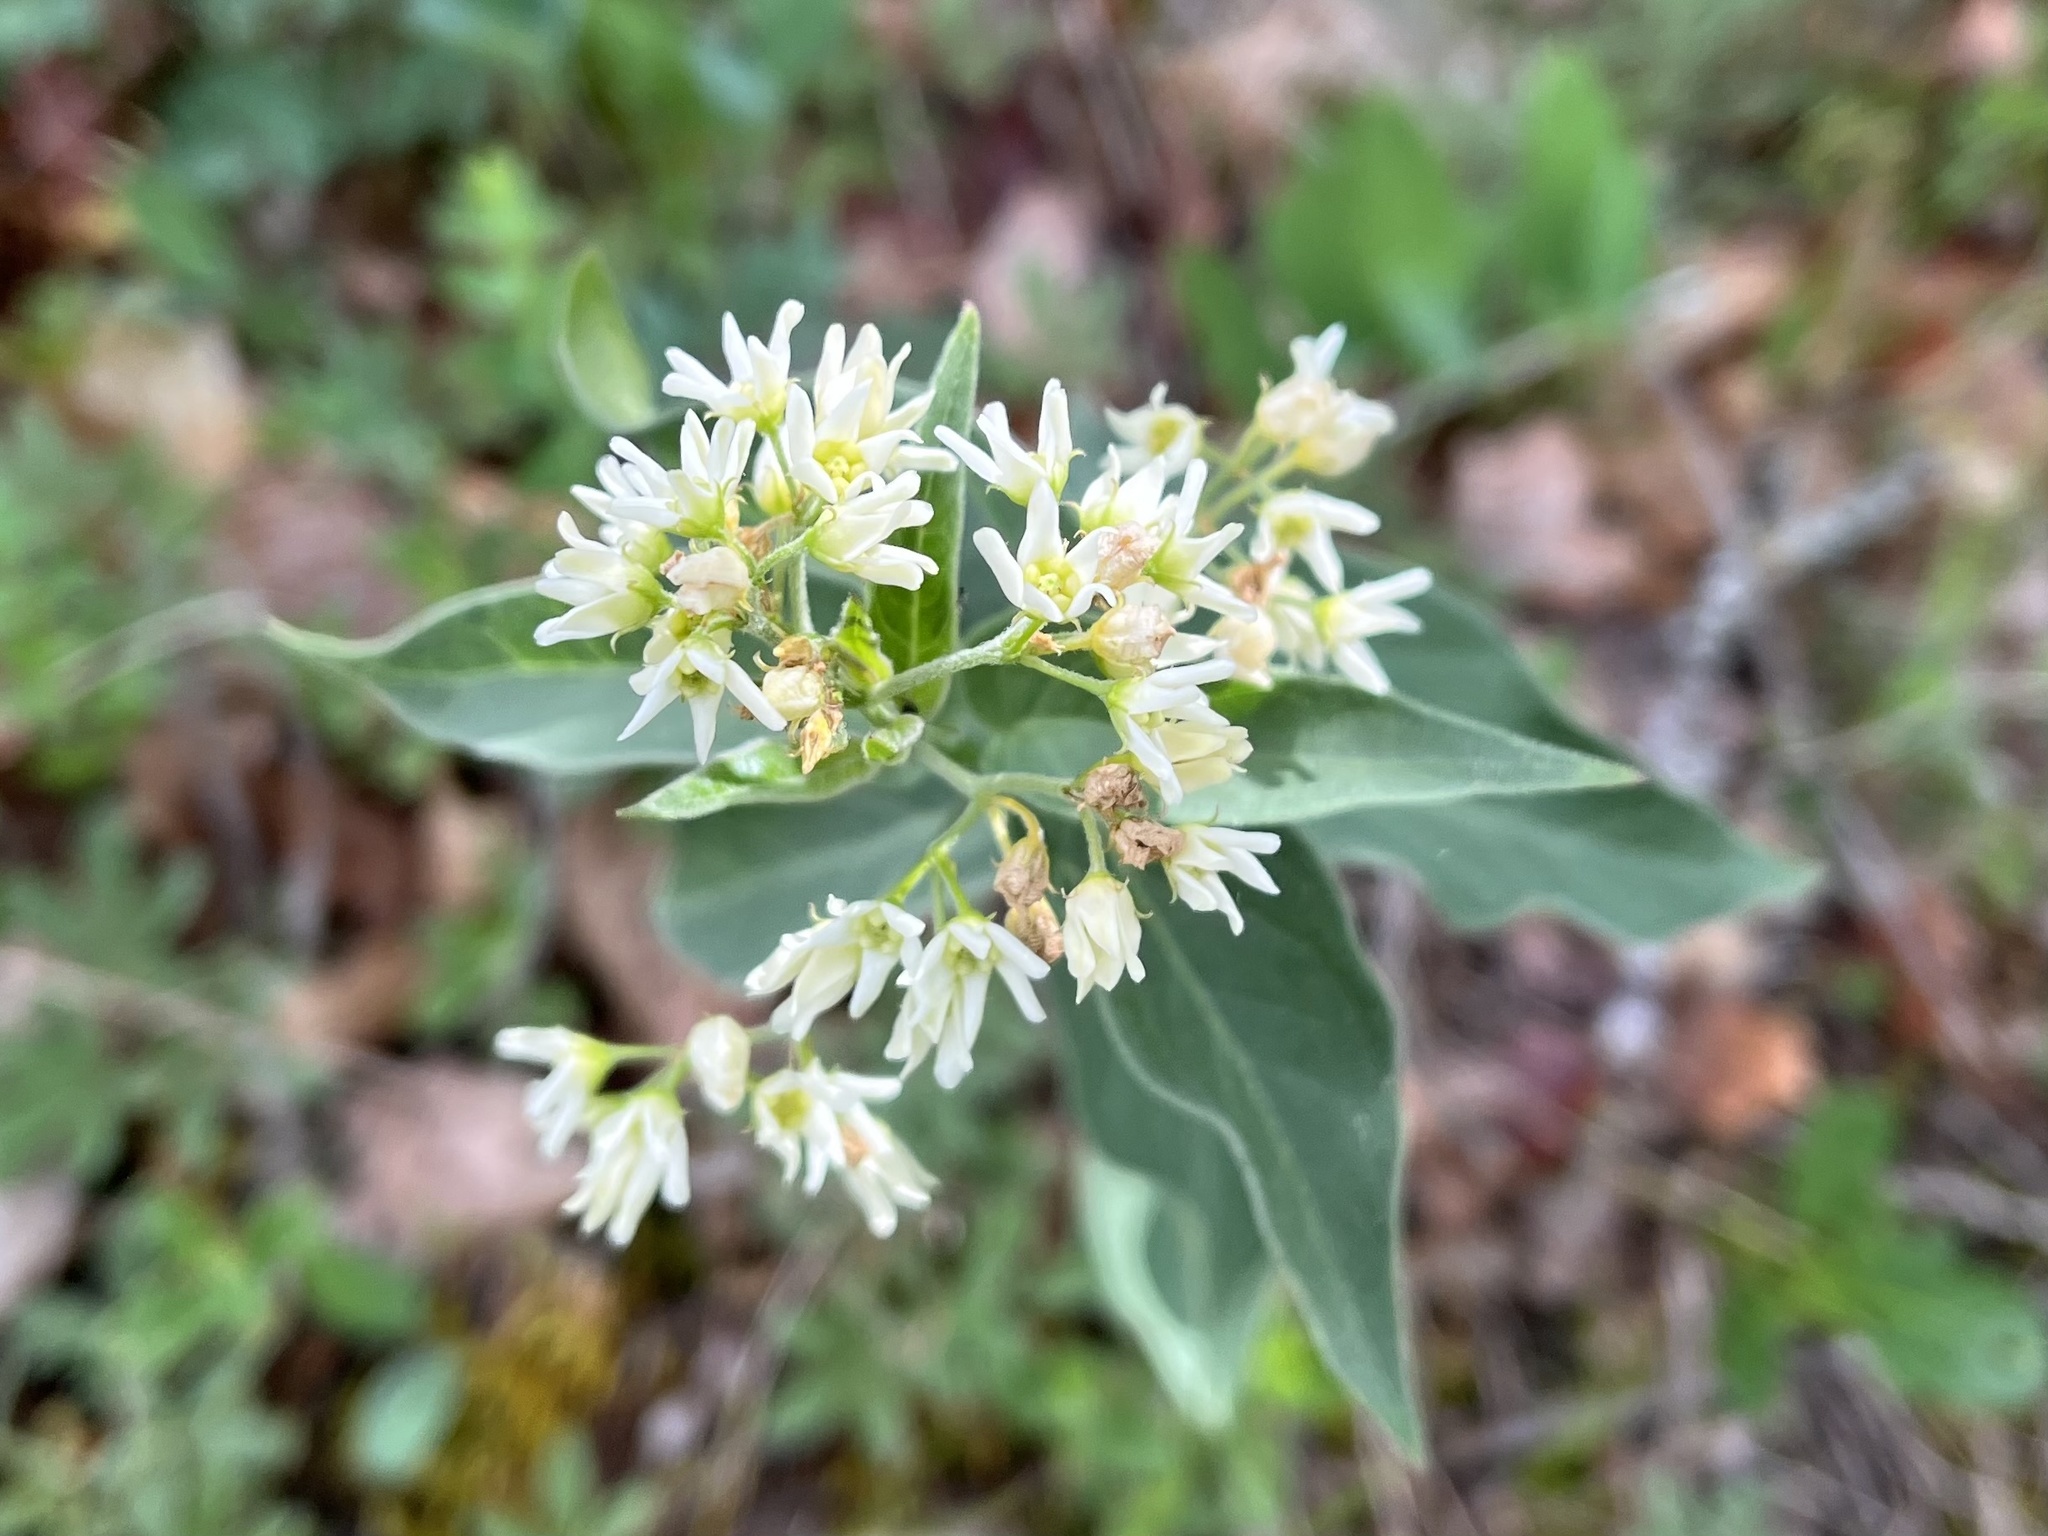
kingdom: Plantae
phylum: Tracheophyta
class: Magnoliopsida
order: Gentianales
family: Apocynaceae
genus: Vincetoxicum
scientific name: Vincetoxicum hirundinaria
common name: White swallowwort
